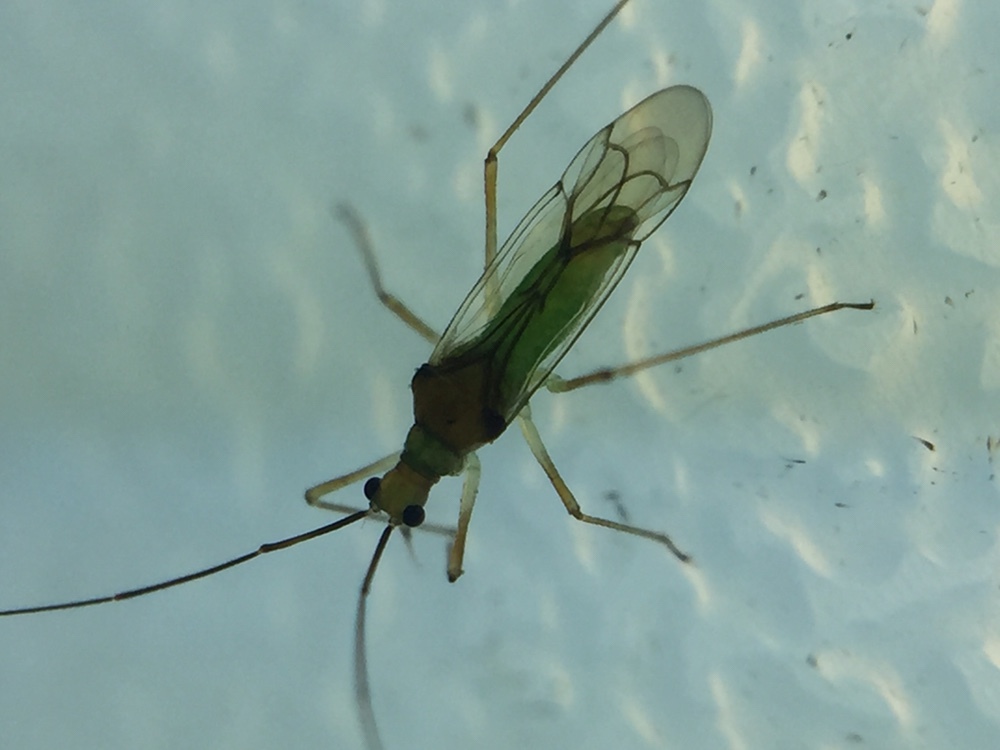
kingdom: Animalia
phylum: Arthropoda
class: Insecta
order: Hemiptera
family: Miridae
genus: Felisacus
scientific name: Felisacus elegantulus
